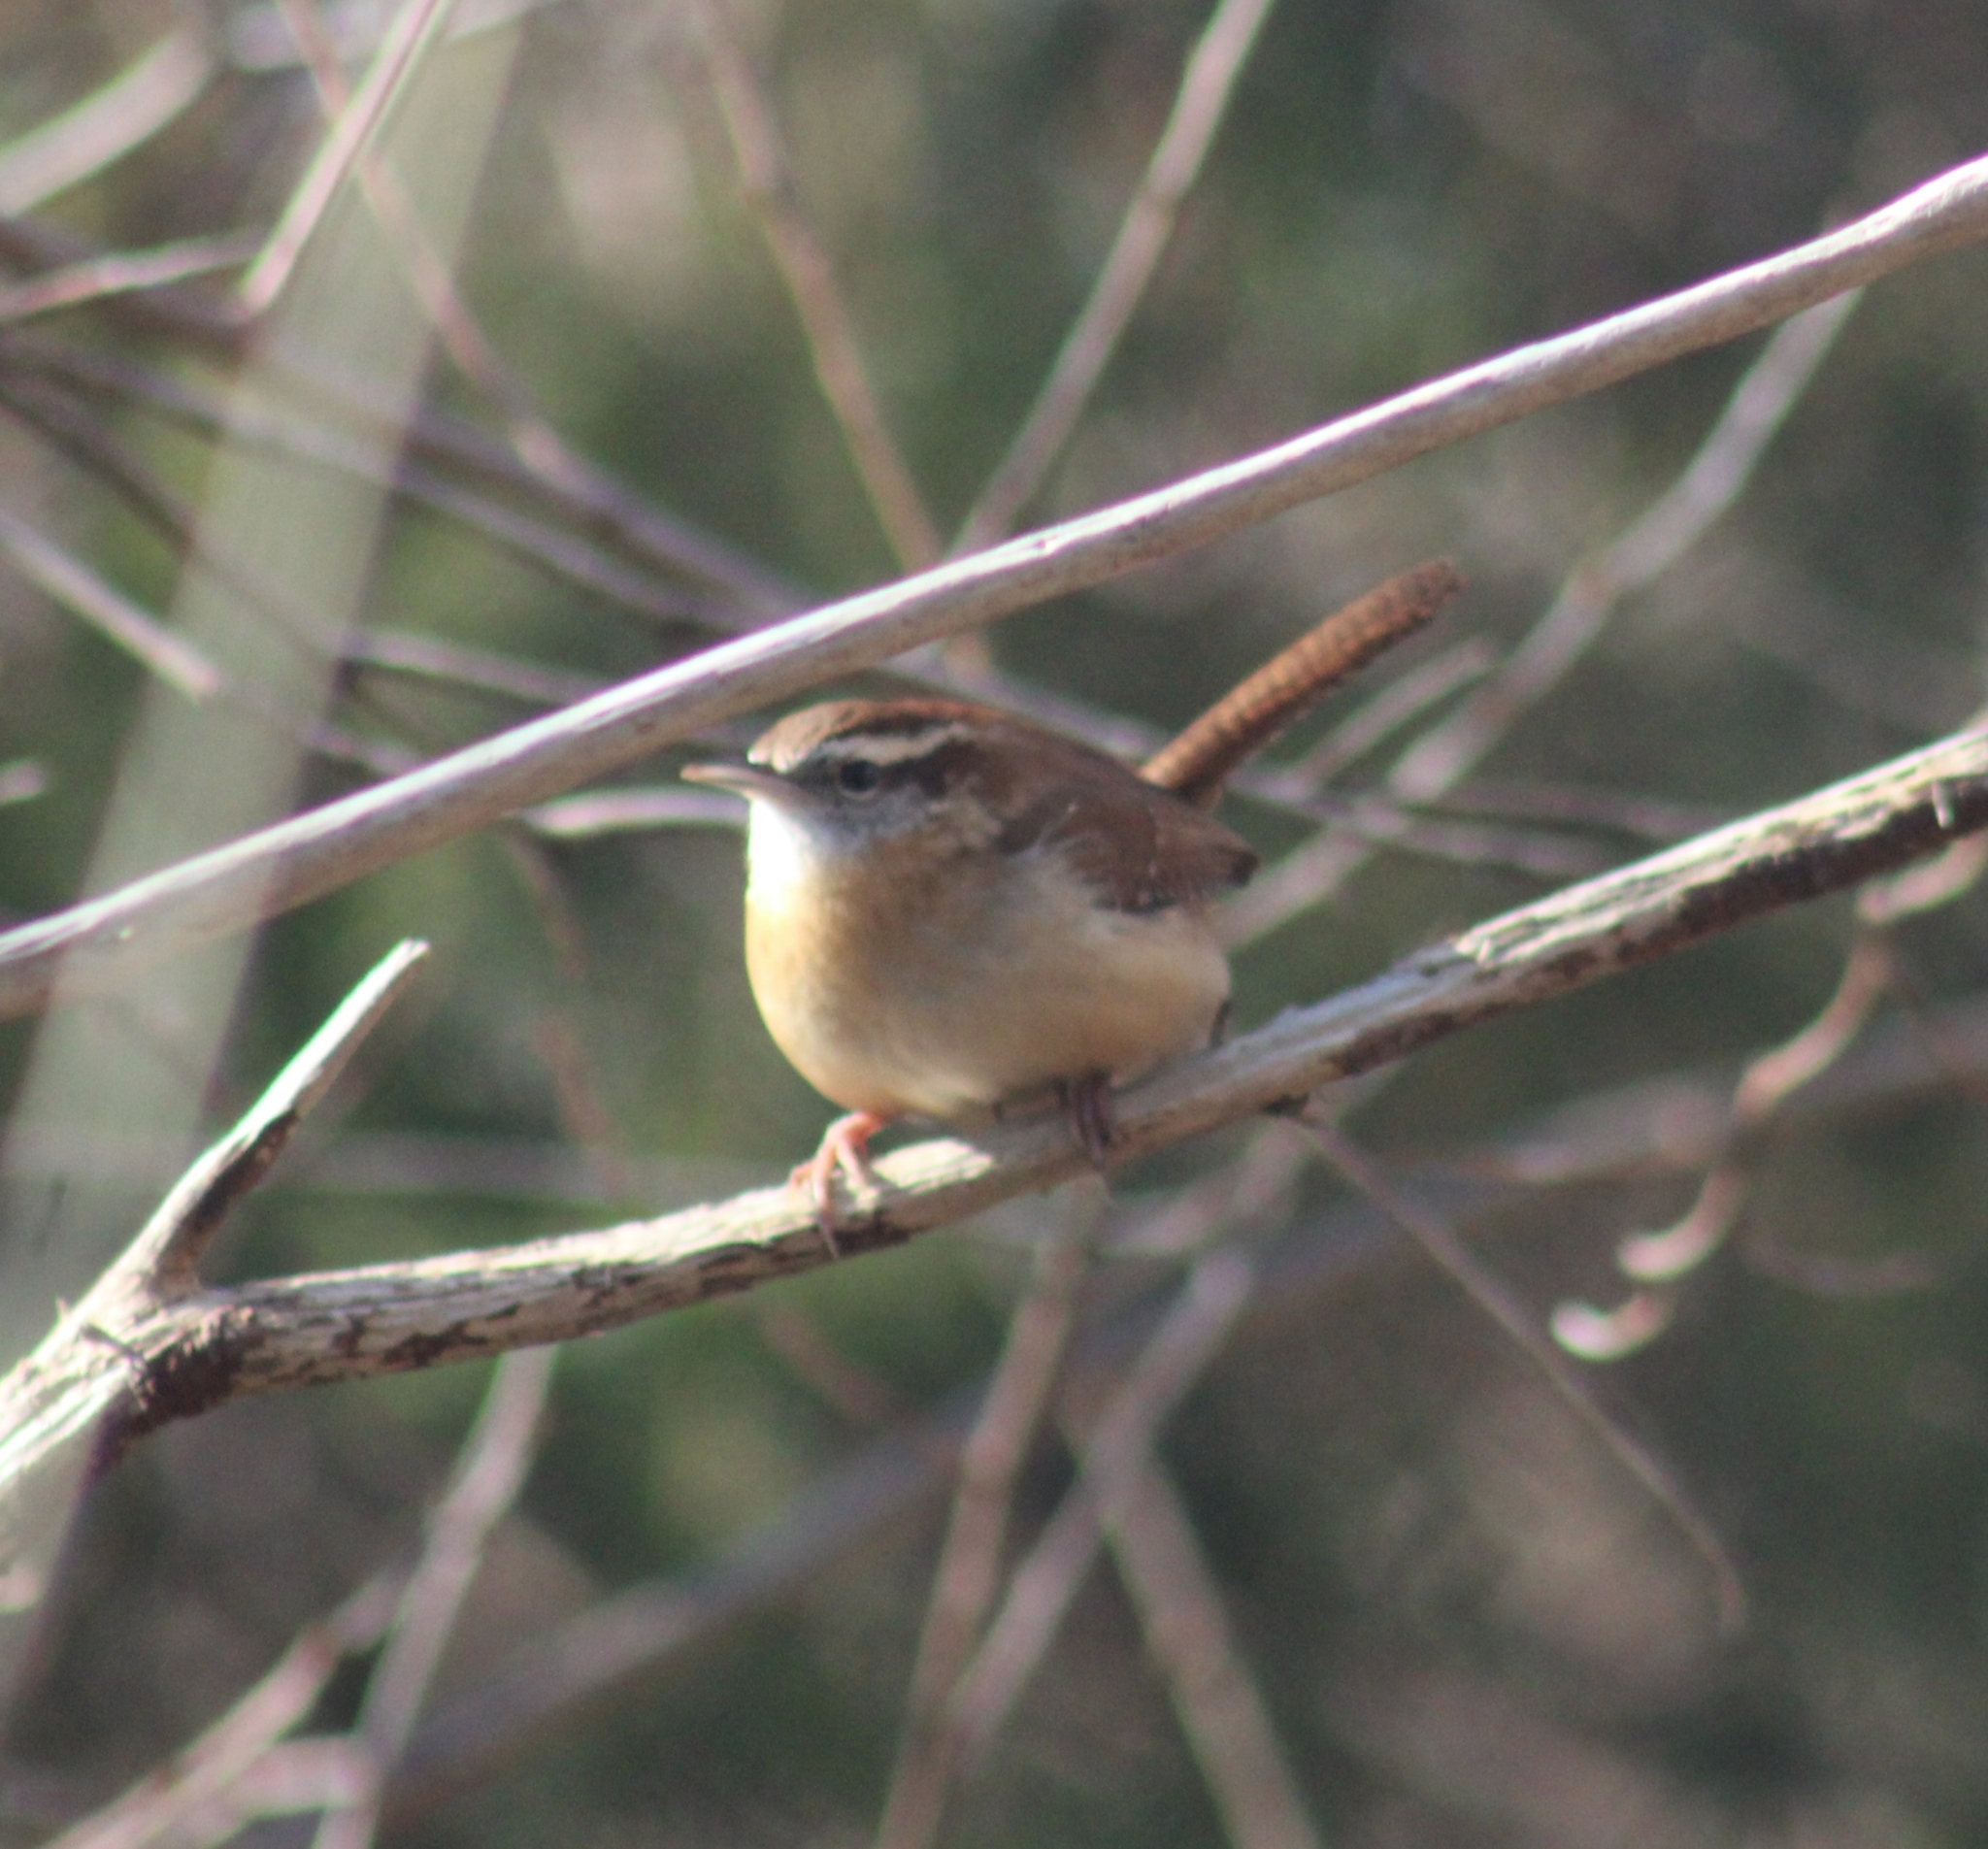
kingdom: Animalia
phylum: Chordata
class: Aves
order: Passeriformes
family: Troglodytidae
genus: Thryothorus
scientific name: Thryothorus ludovicianus
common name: Carolina wren
